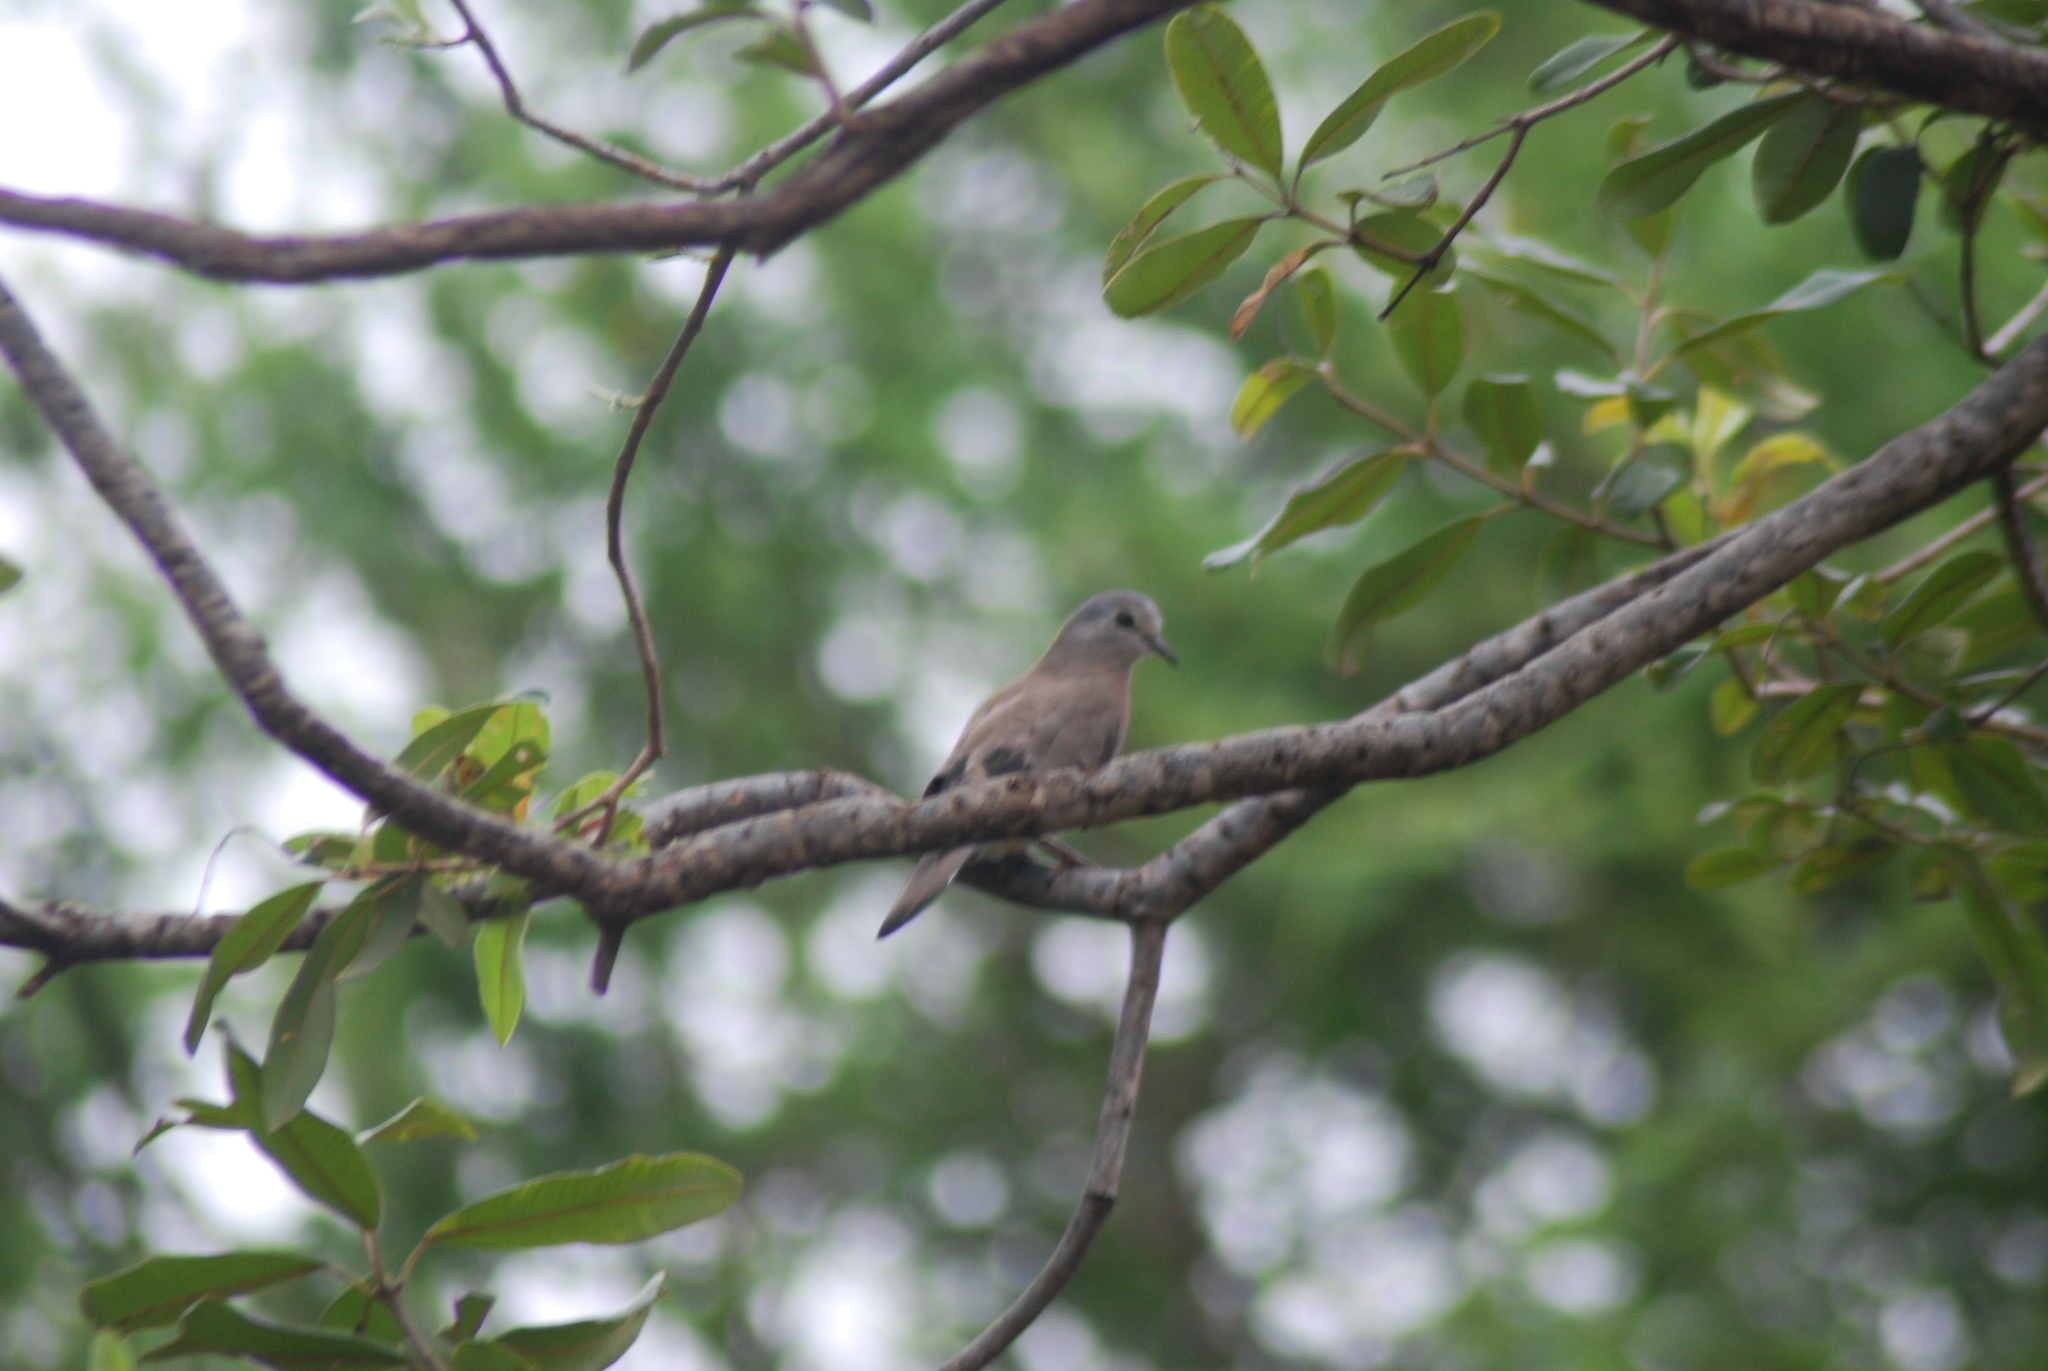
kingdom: Animalia
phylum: Chordata
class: Aves
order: Columbiformes
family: Columbidae
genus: Turtur
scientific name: Turtur chalcospilos
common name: Emerald-spotted wood dove
